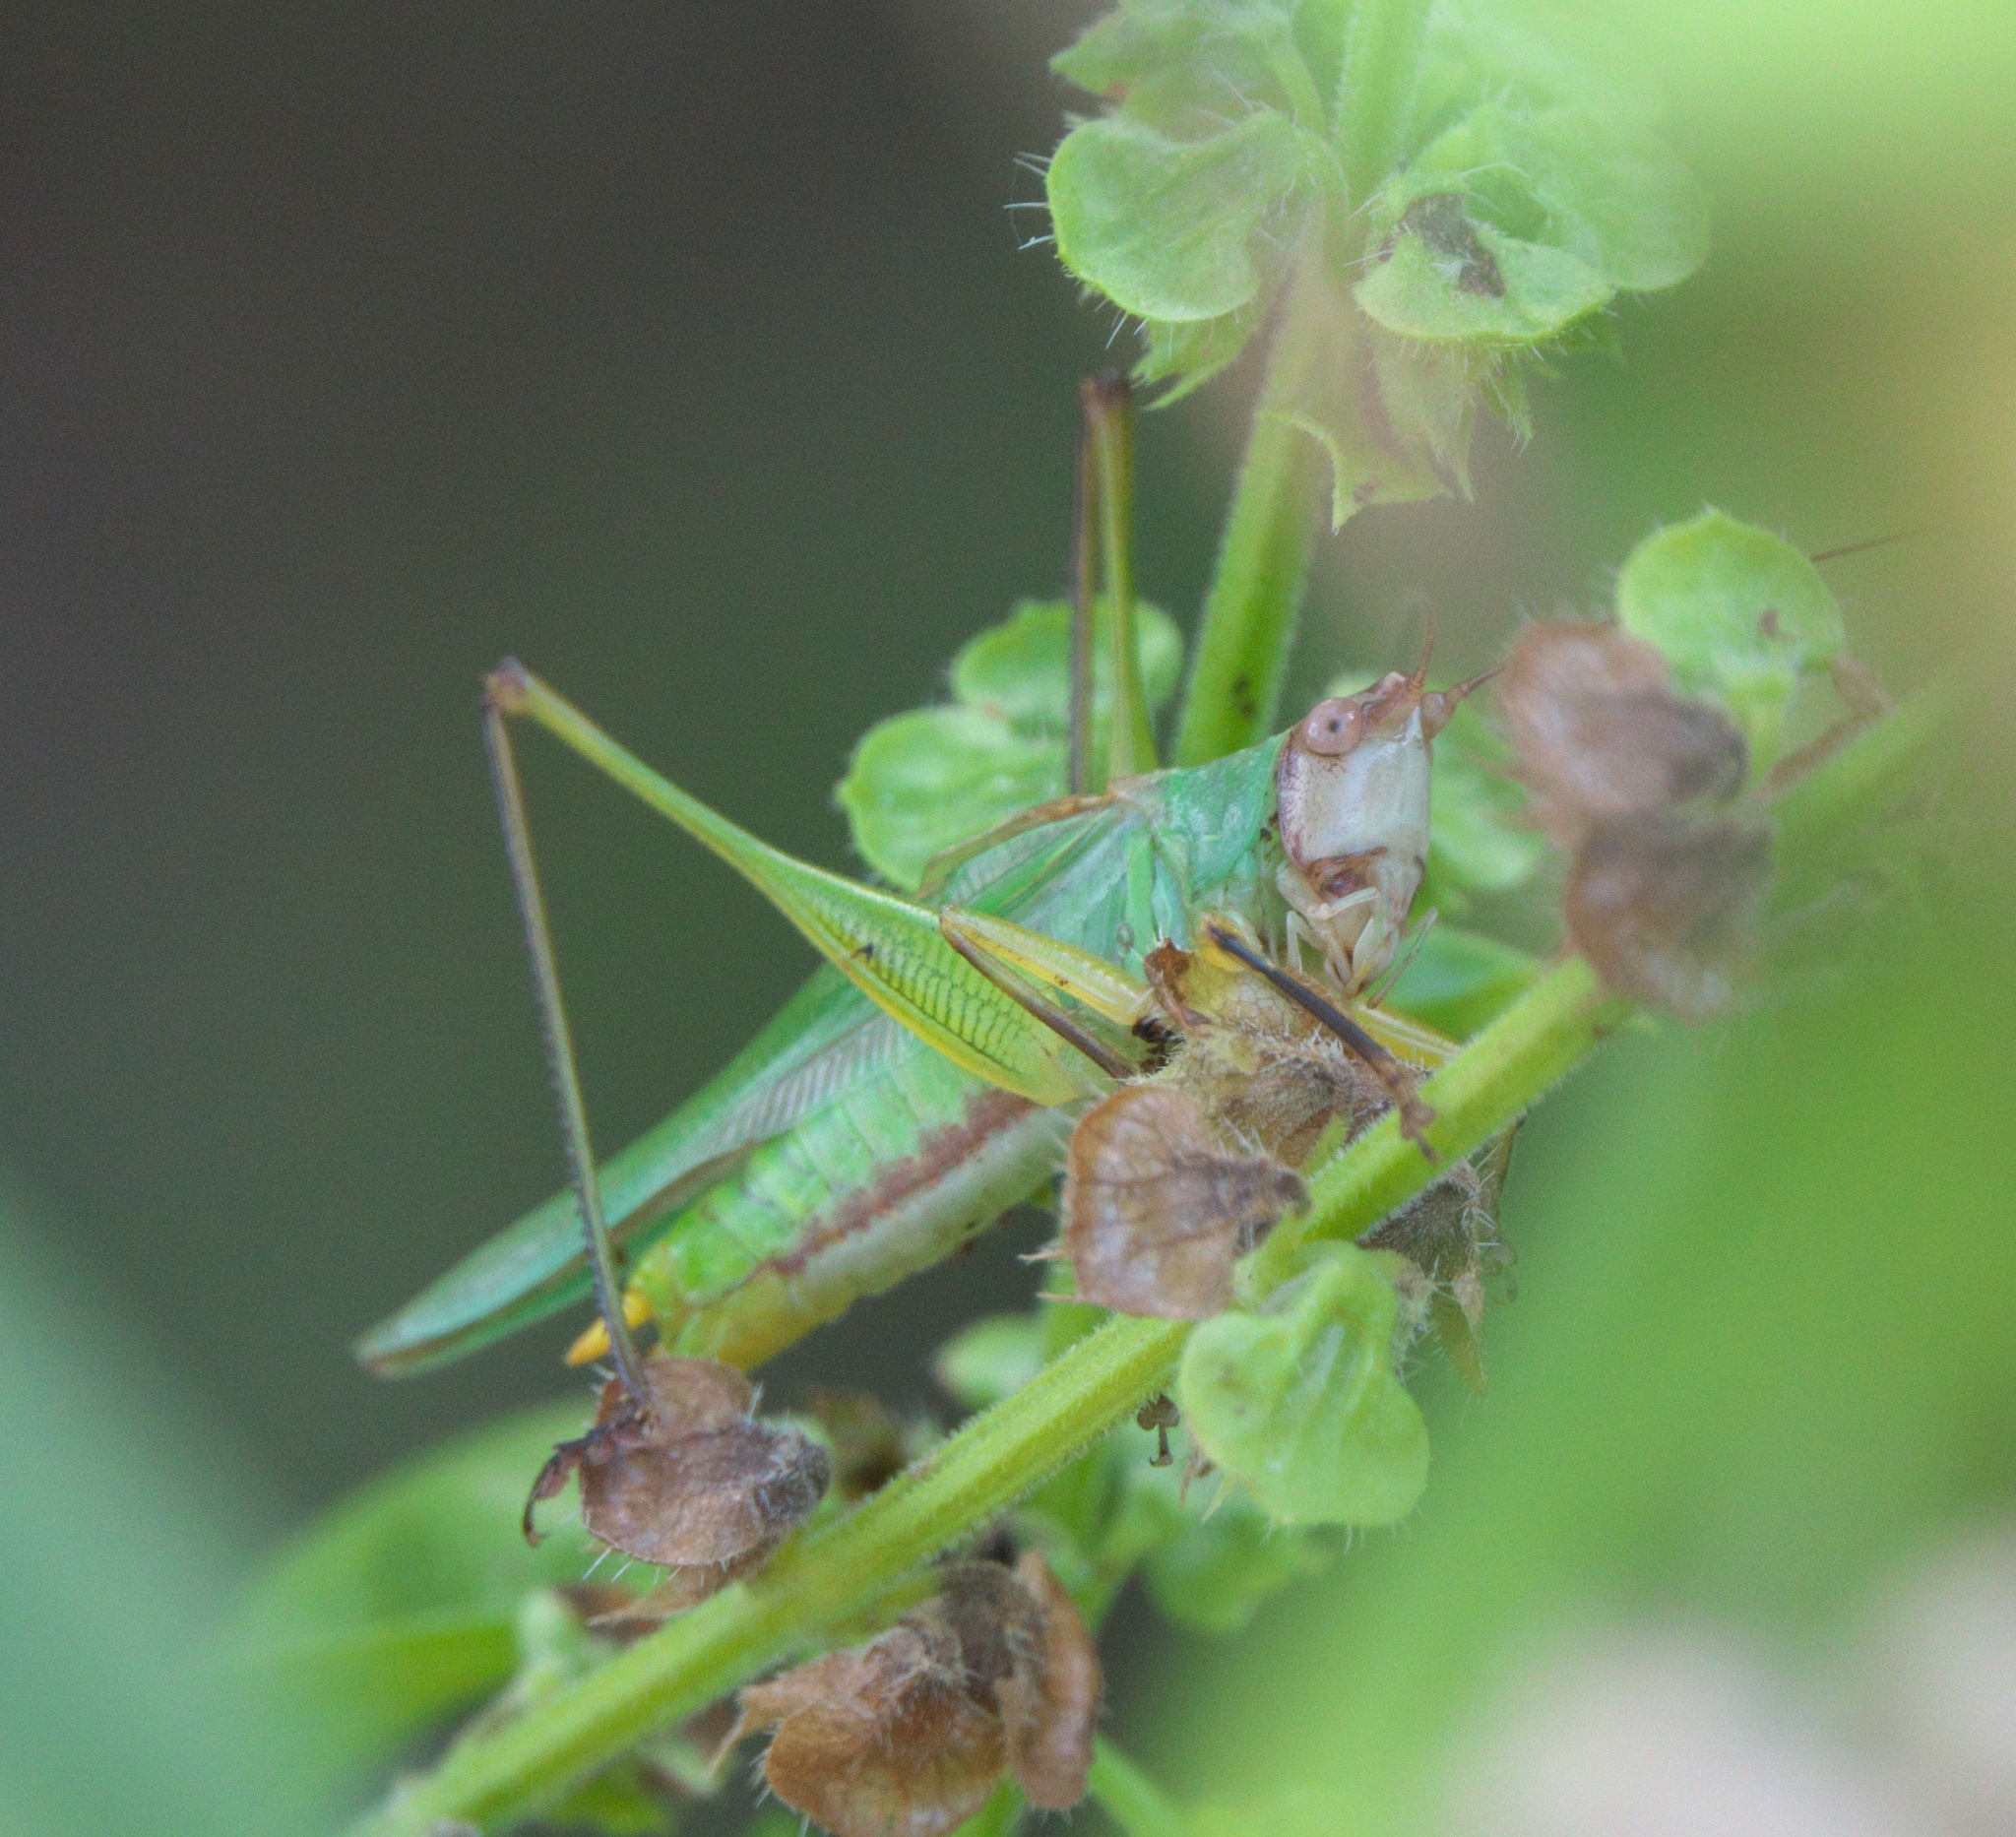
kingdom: Animalia
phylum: Arthropoda
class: Insecta
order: Orthoptera
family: Tettigoniidae
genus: Orchelimum
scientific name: Orchelimum nigripes
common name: Black-legged meadow katydid
